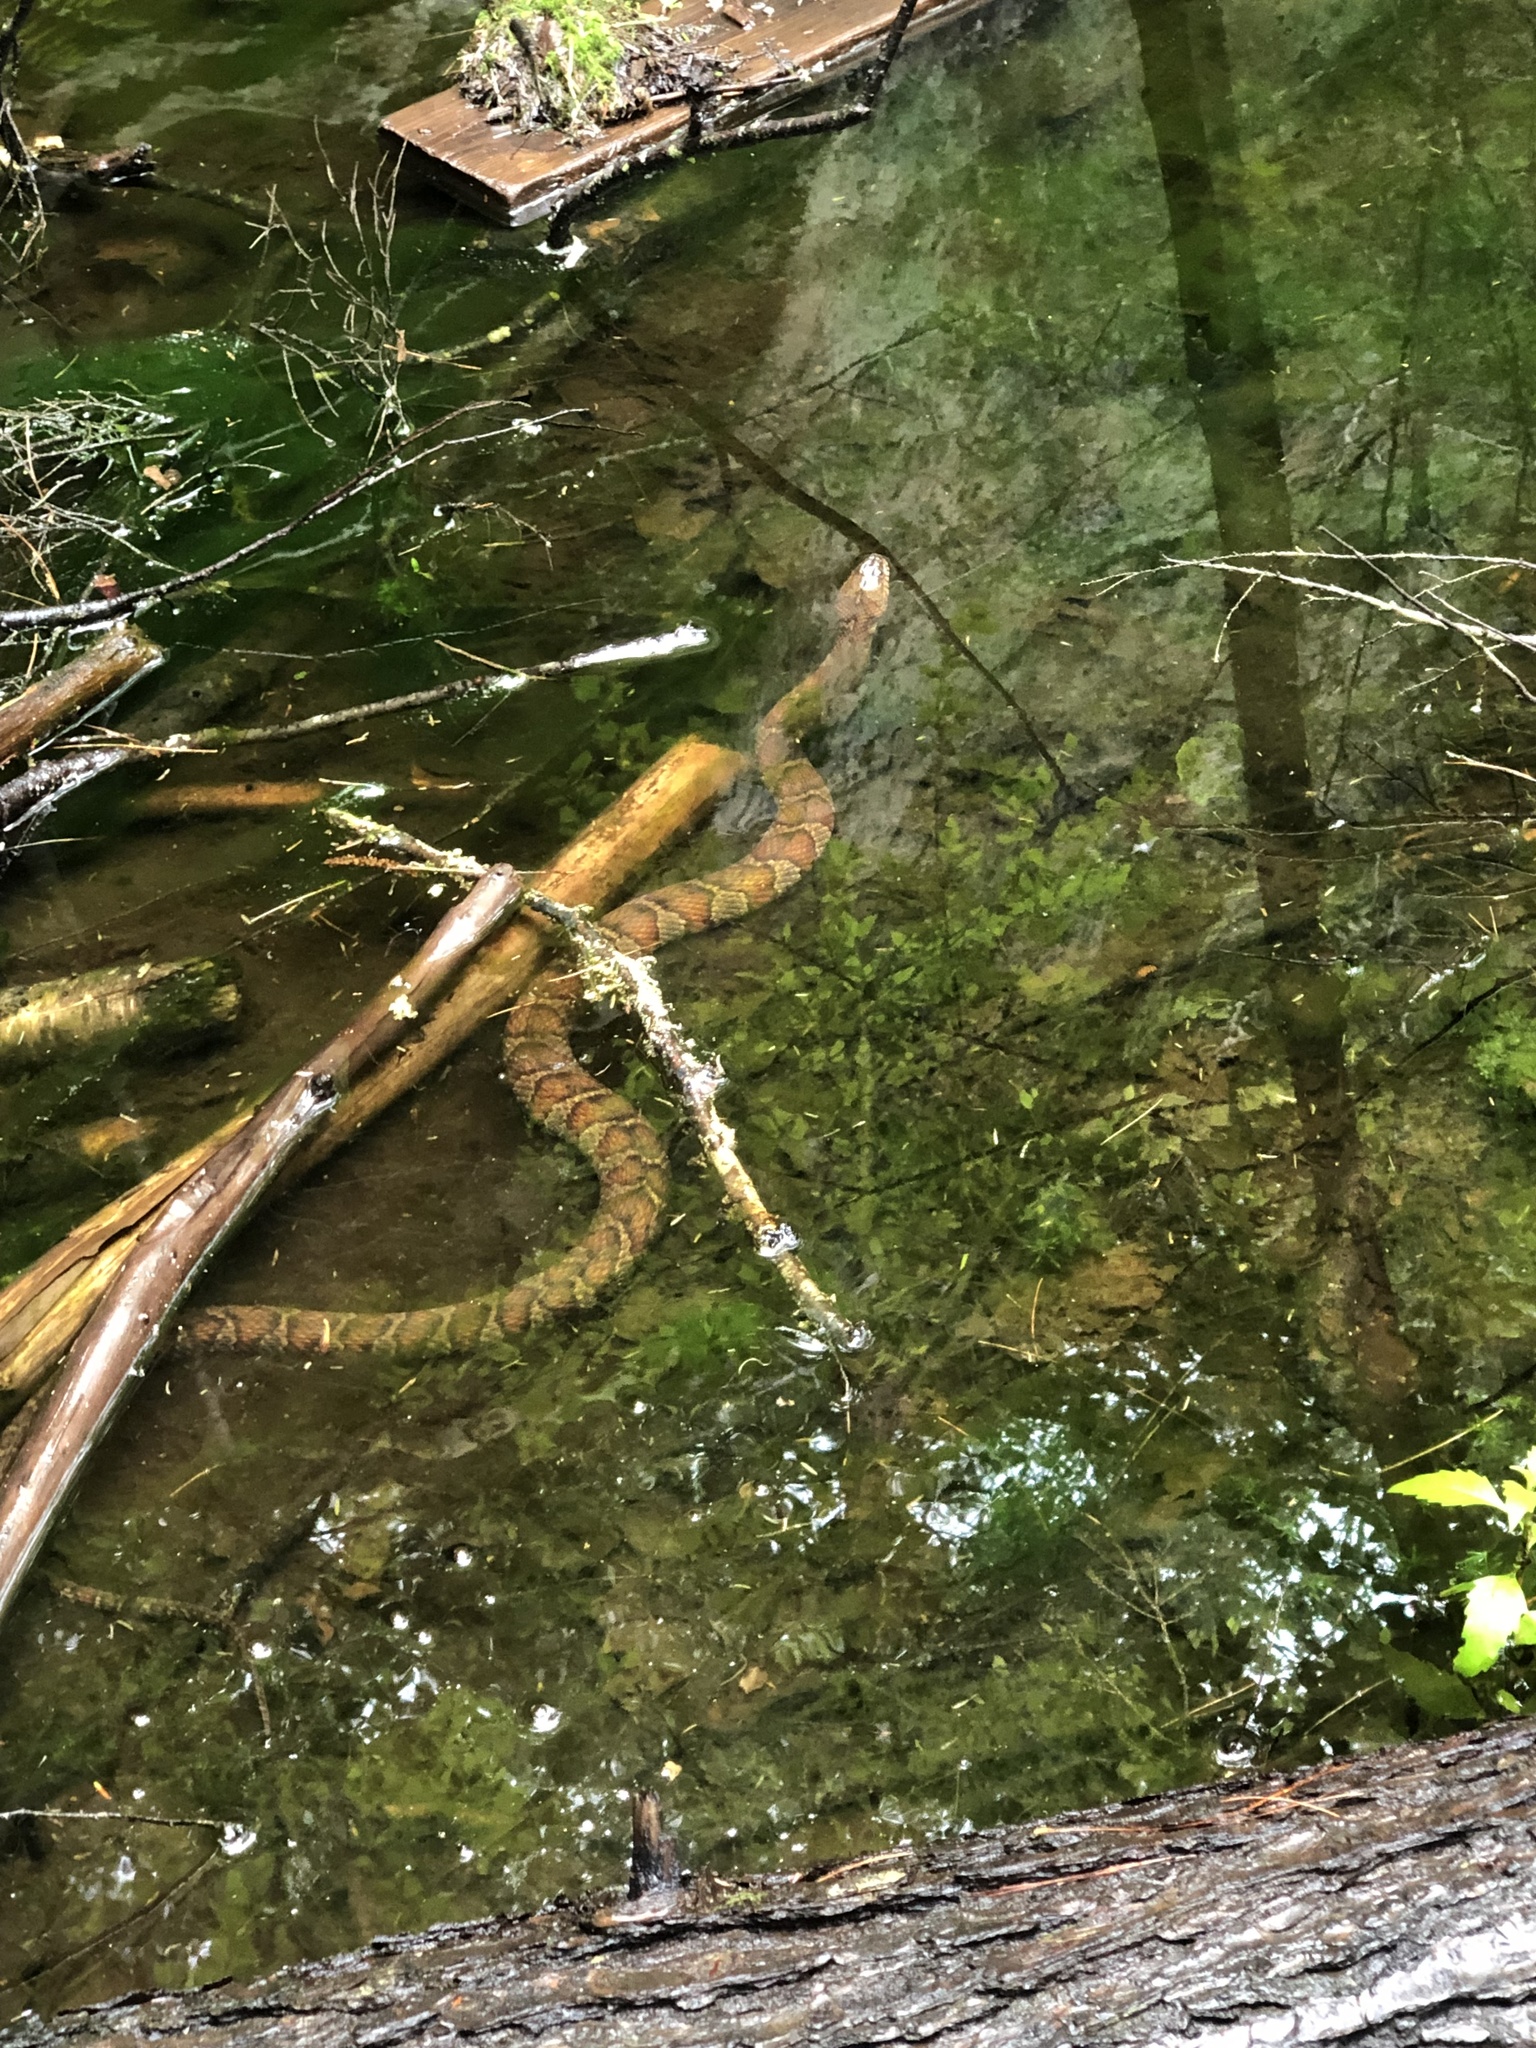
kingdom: Animalia
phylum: Chordata
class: Squamata
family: Colubridae
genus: Nerodia
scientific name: Nerodia sipedon
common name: Northern water snake
